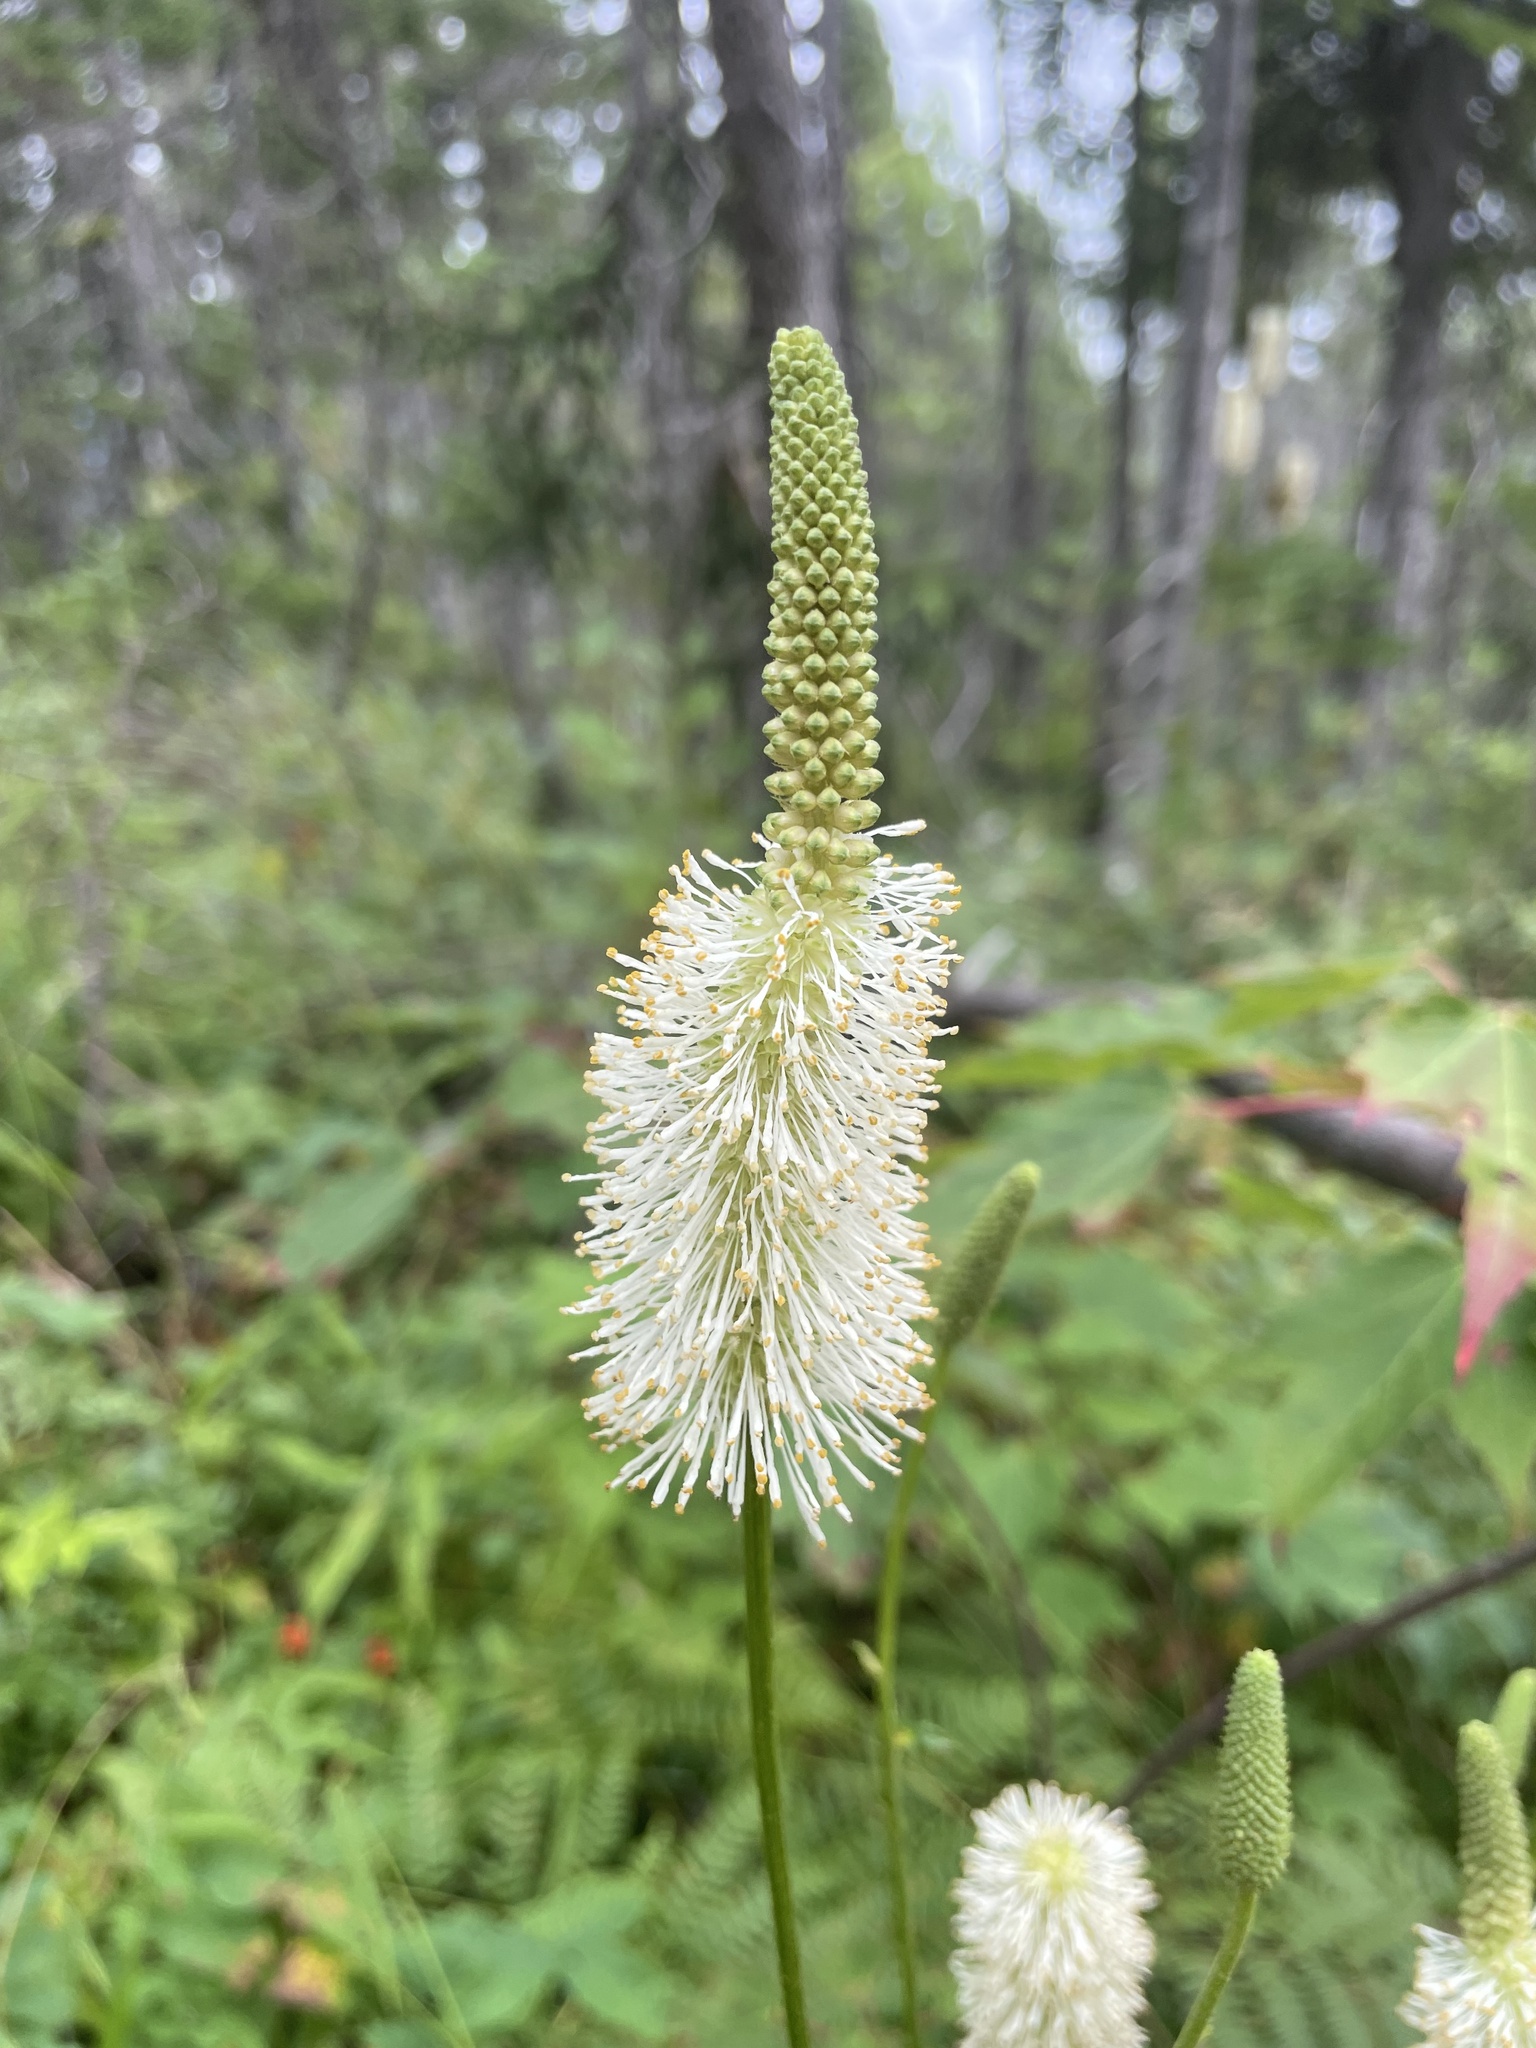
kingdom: Plantae
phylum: Tracheophyta
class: Magnoliopsida
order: Rosales
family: Rosaceae
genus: Sanguisorba
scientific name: Sanguisorba canadensis
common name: White burnet
